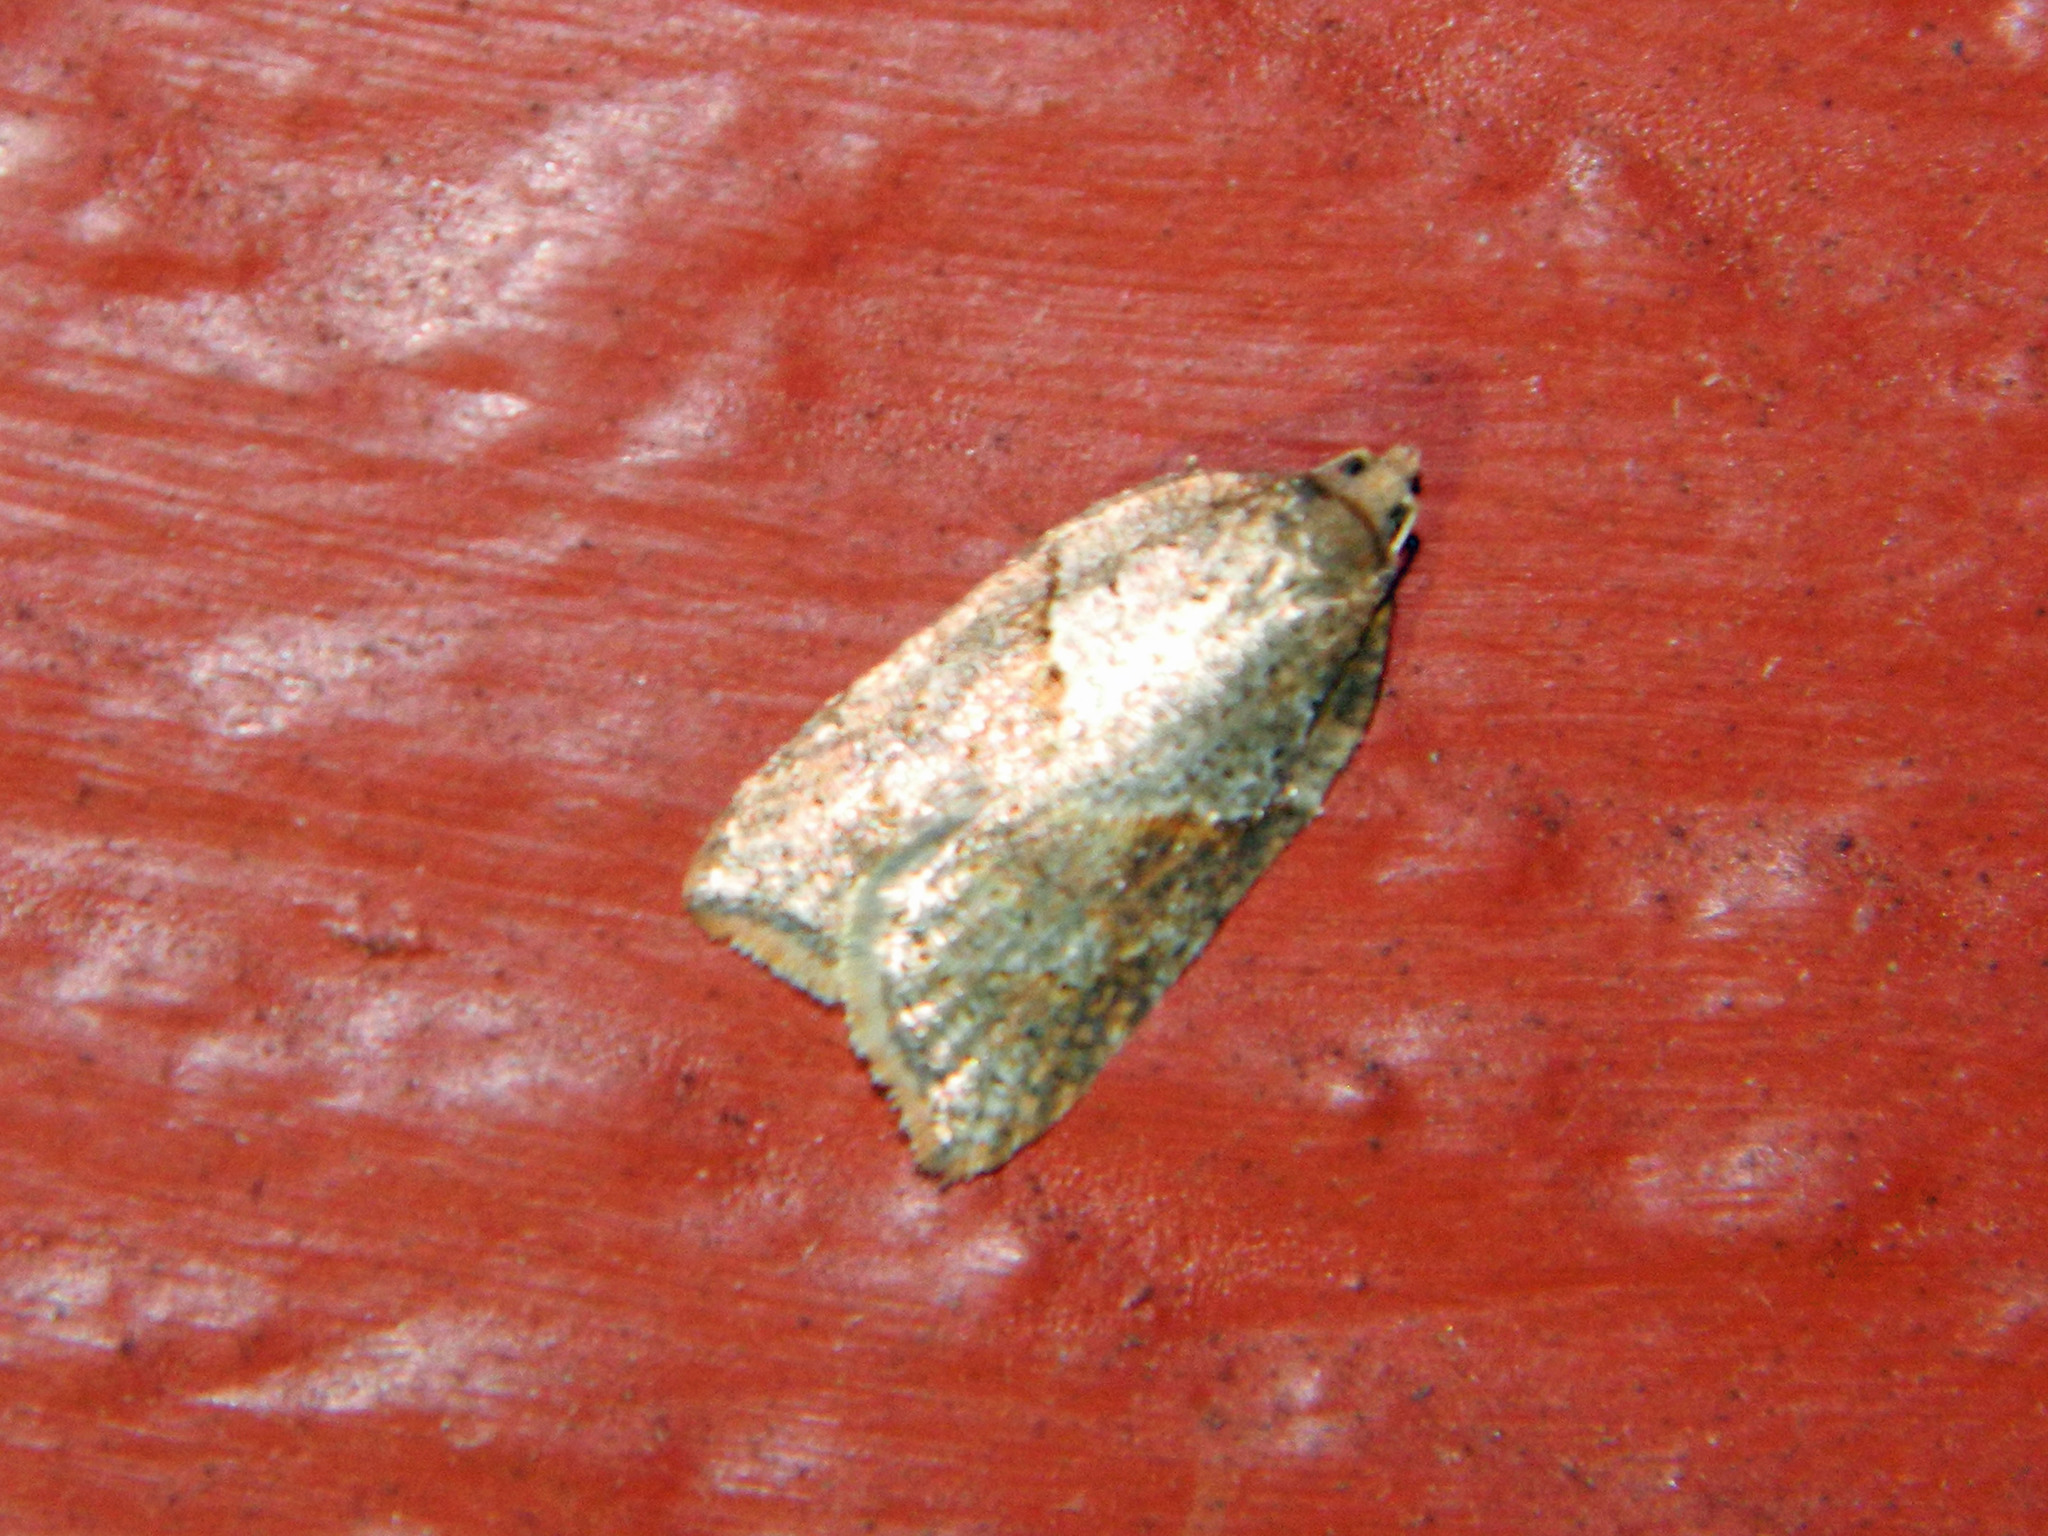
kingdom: Animalia
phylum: Arthropoda
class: Insecta
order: Lepidoptera
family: Tortricidae
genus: Acleris
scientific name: Acleris maccana
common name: Marbled button
